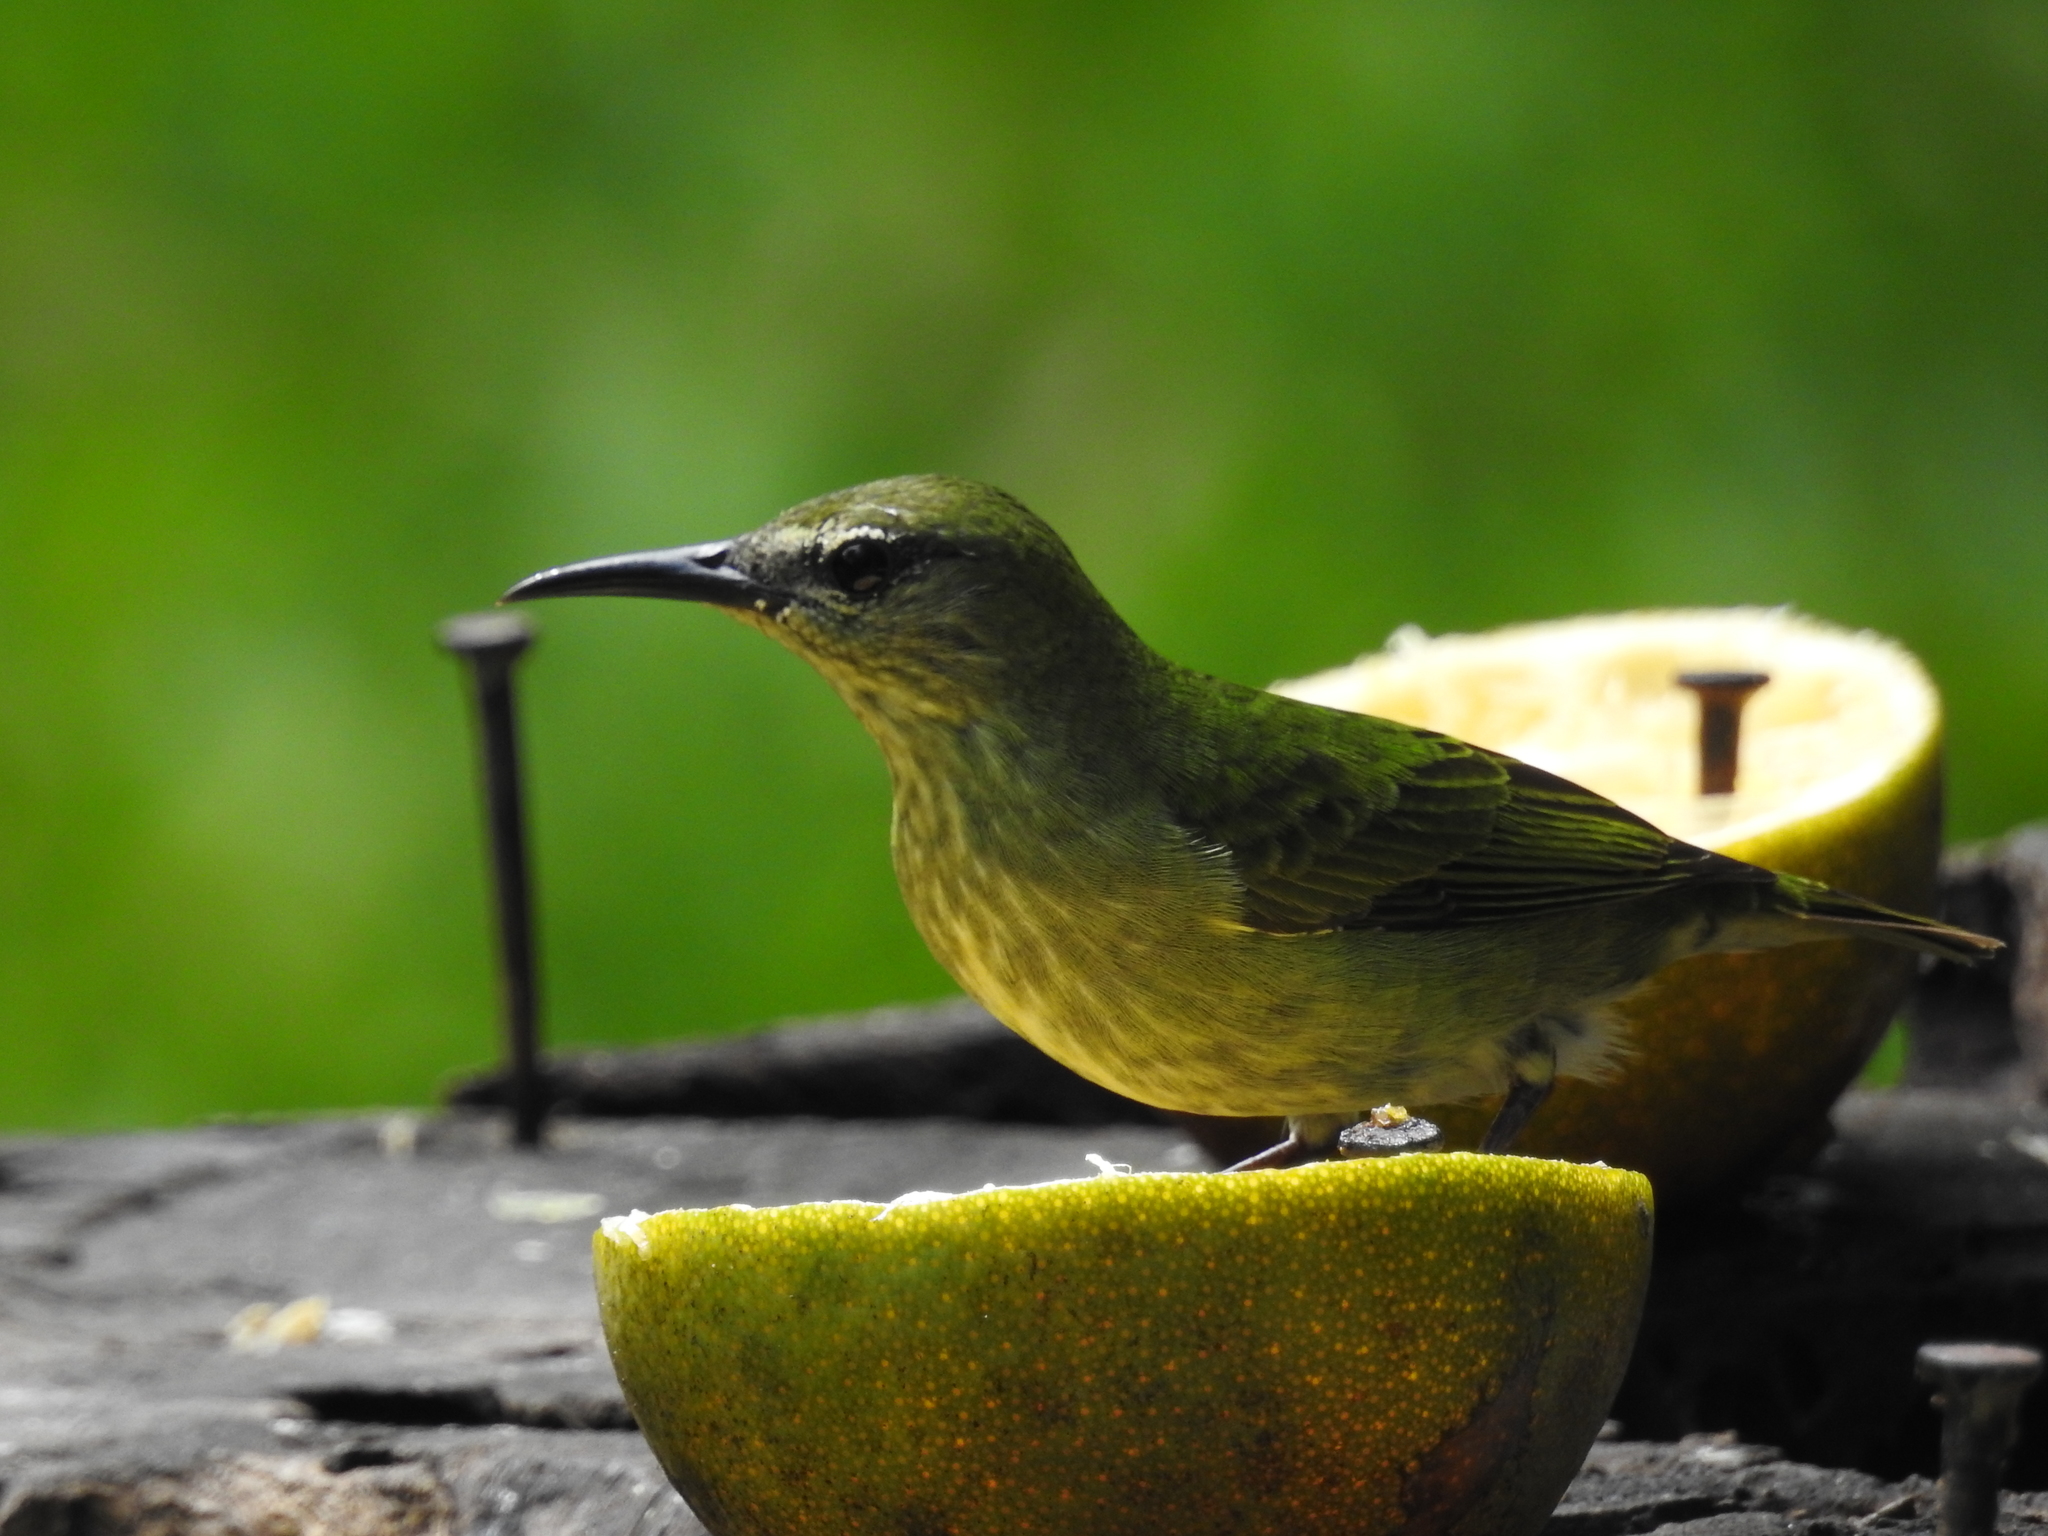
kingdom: Animalia
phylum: Chordata
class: Aves
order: Passeriformes
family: Thraupidae
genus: Cyanerpes
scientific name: Cyanerpes cyaneus
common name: Red-legged honeycreeper
